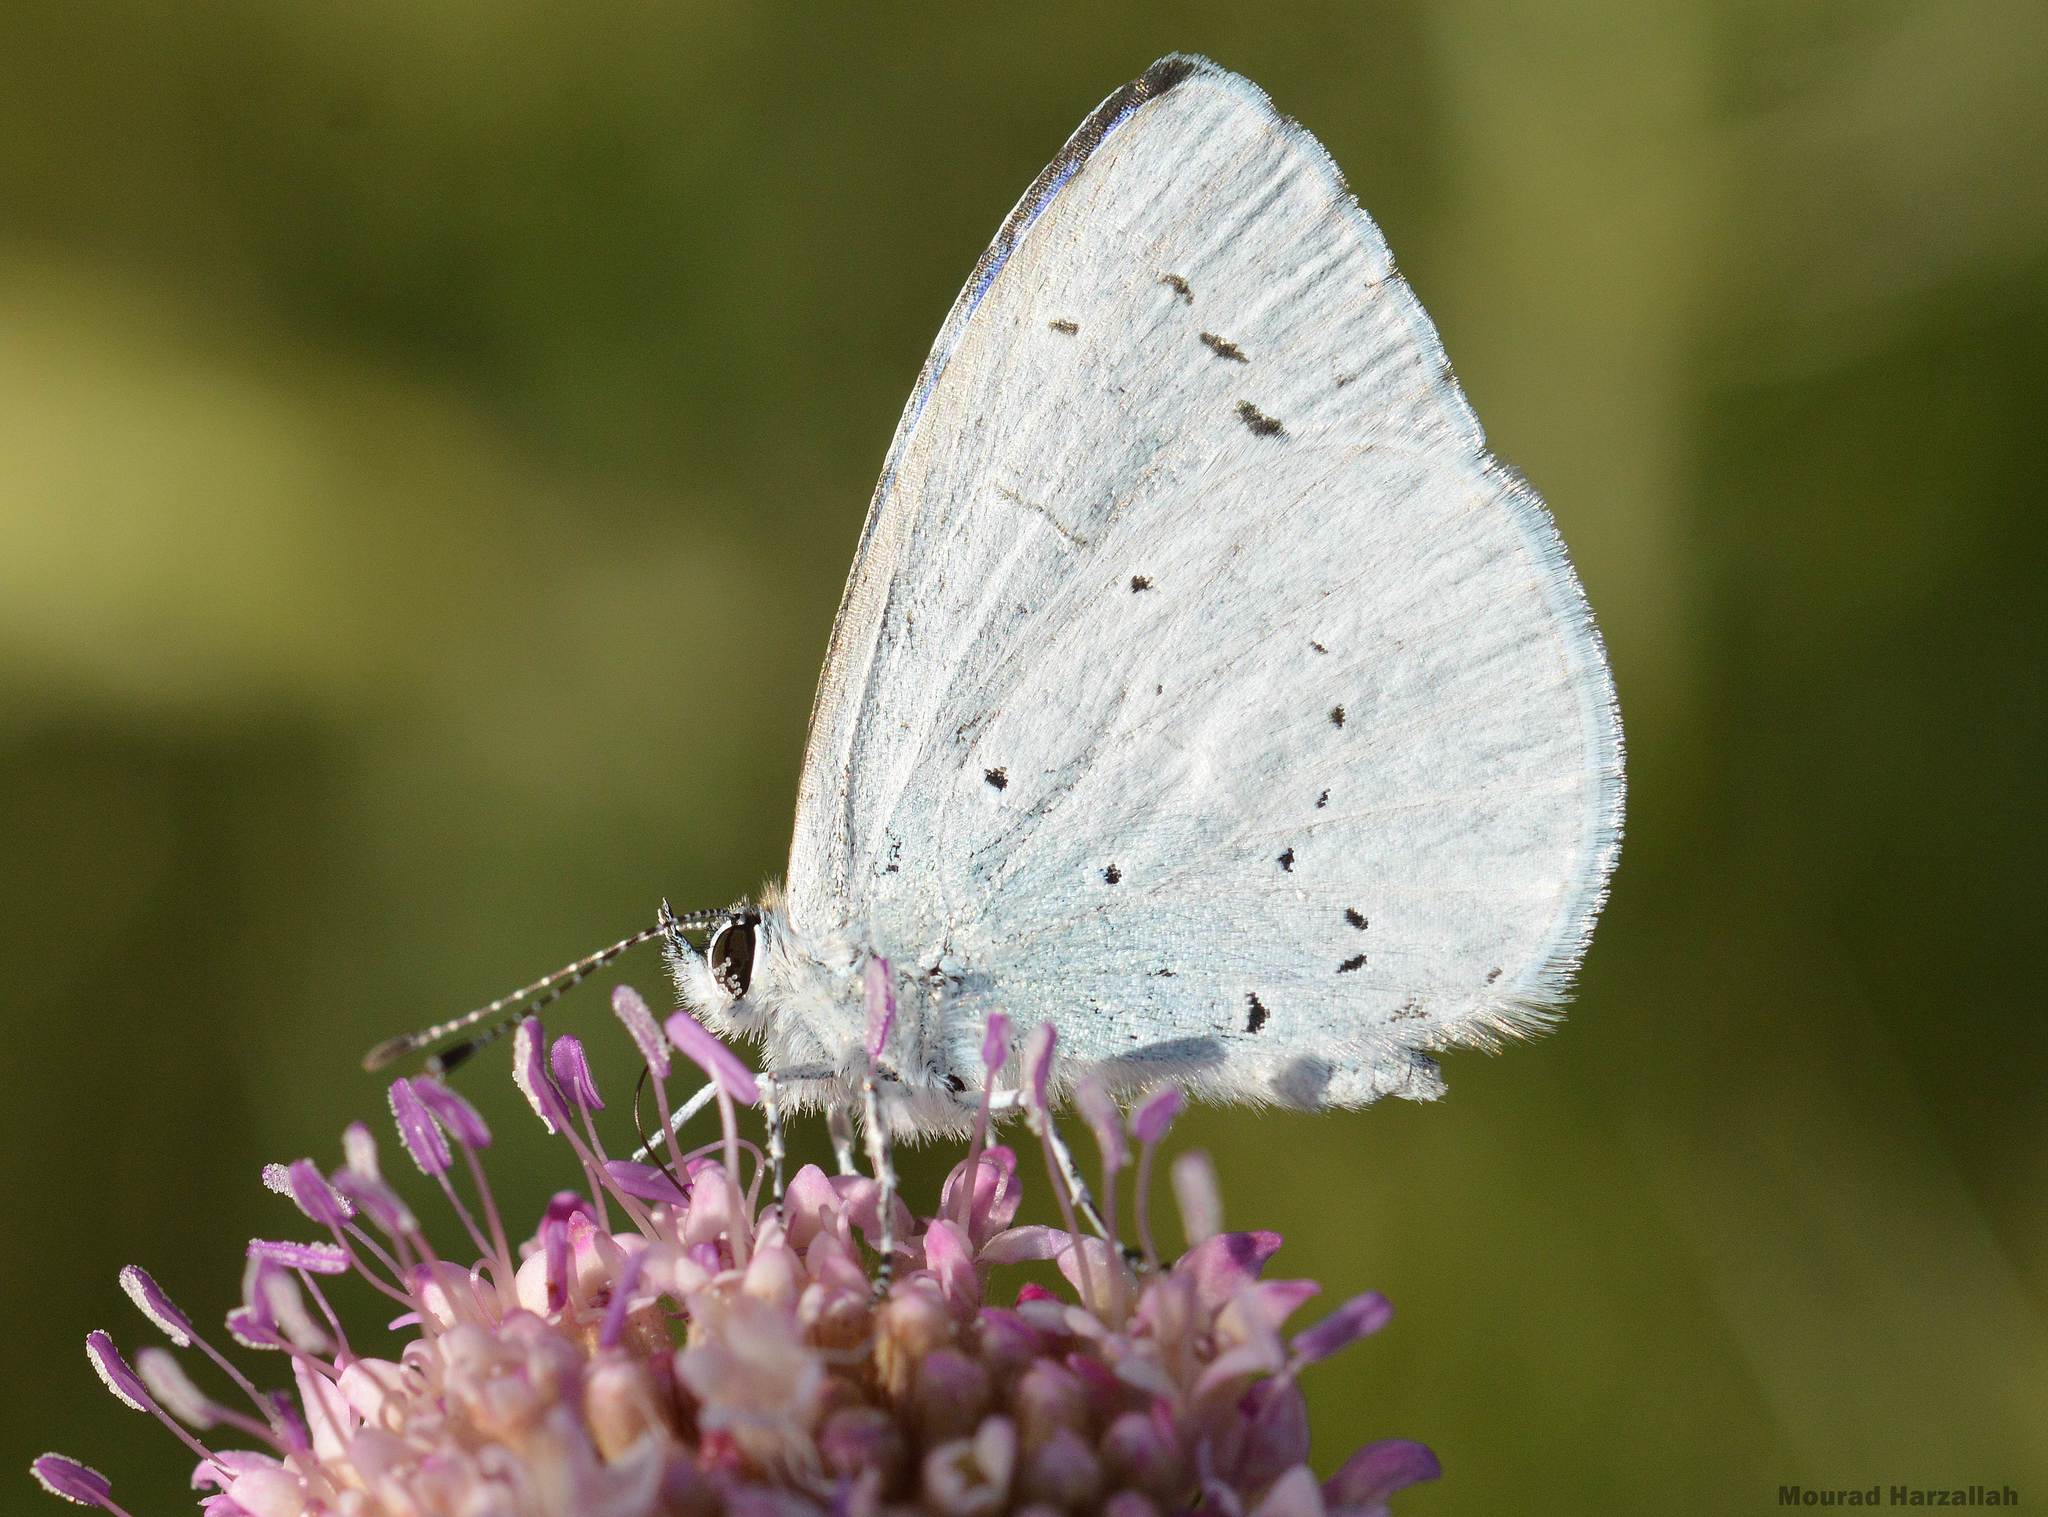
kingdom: Animalia
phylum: Arthropoda
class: Insecta
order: Lepidoptera
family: Lycaenidae
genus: Celastrina
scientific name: Celastrina argiolus
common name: Holly blue
